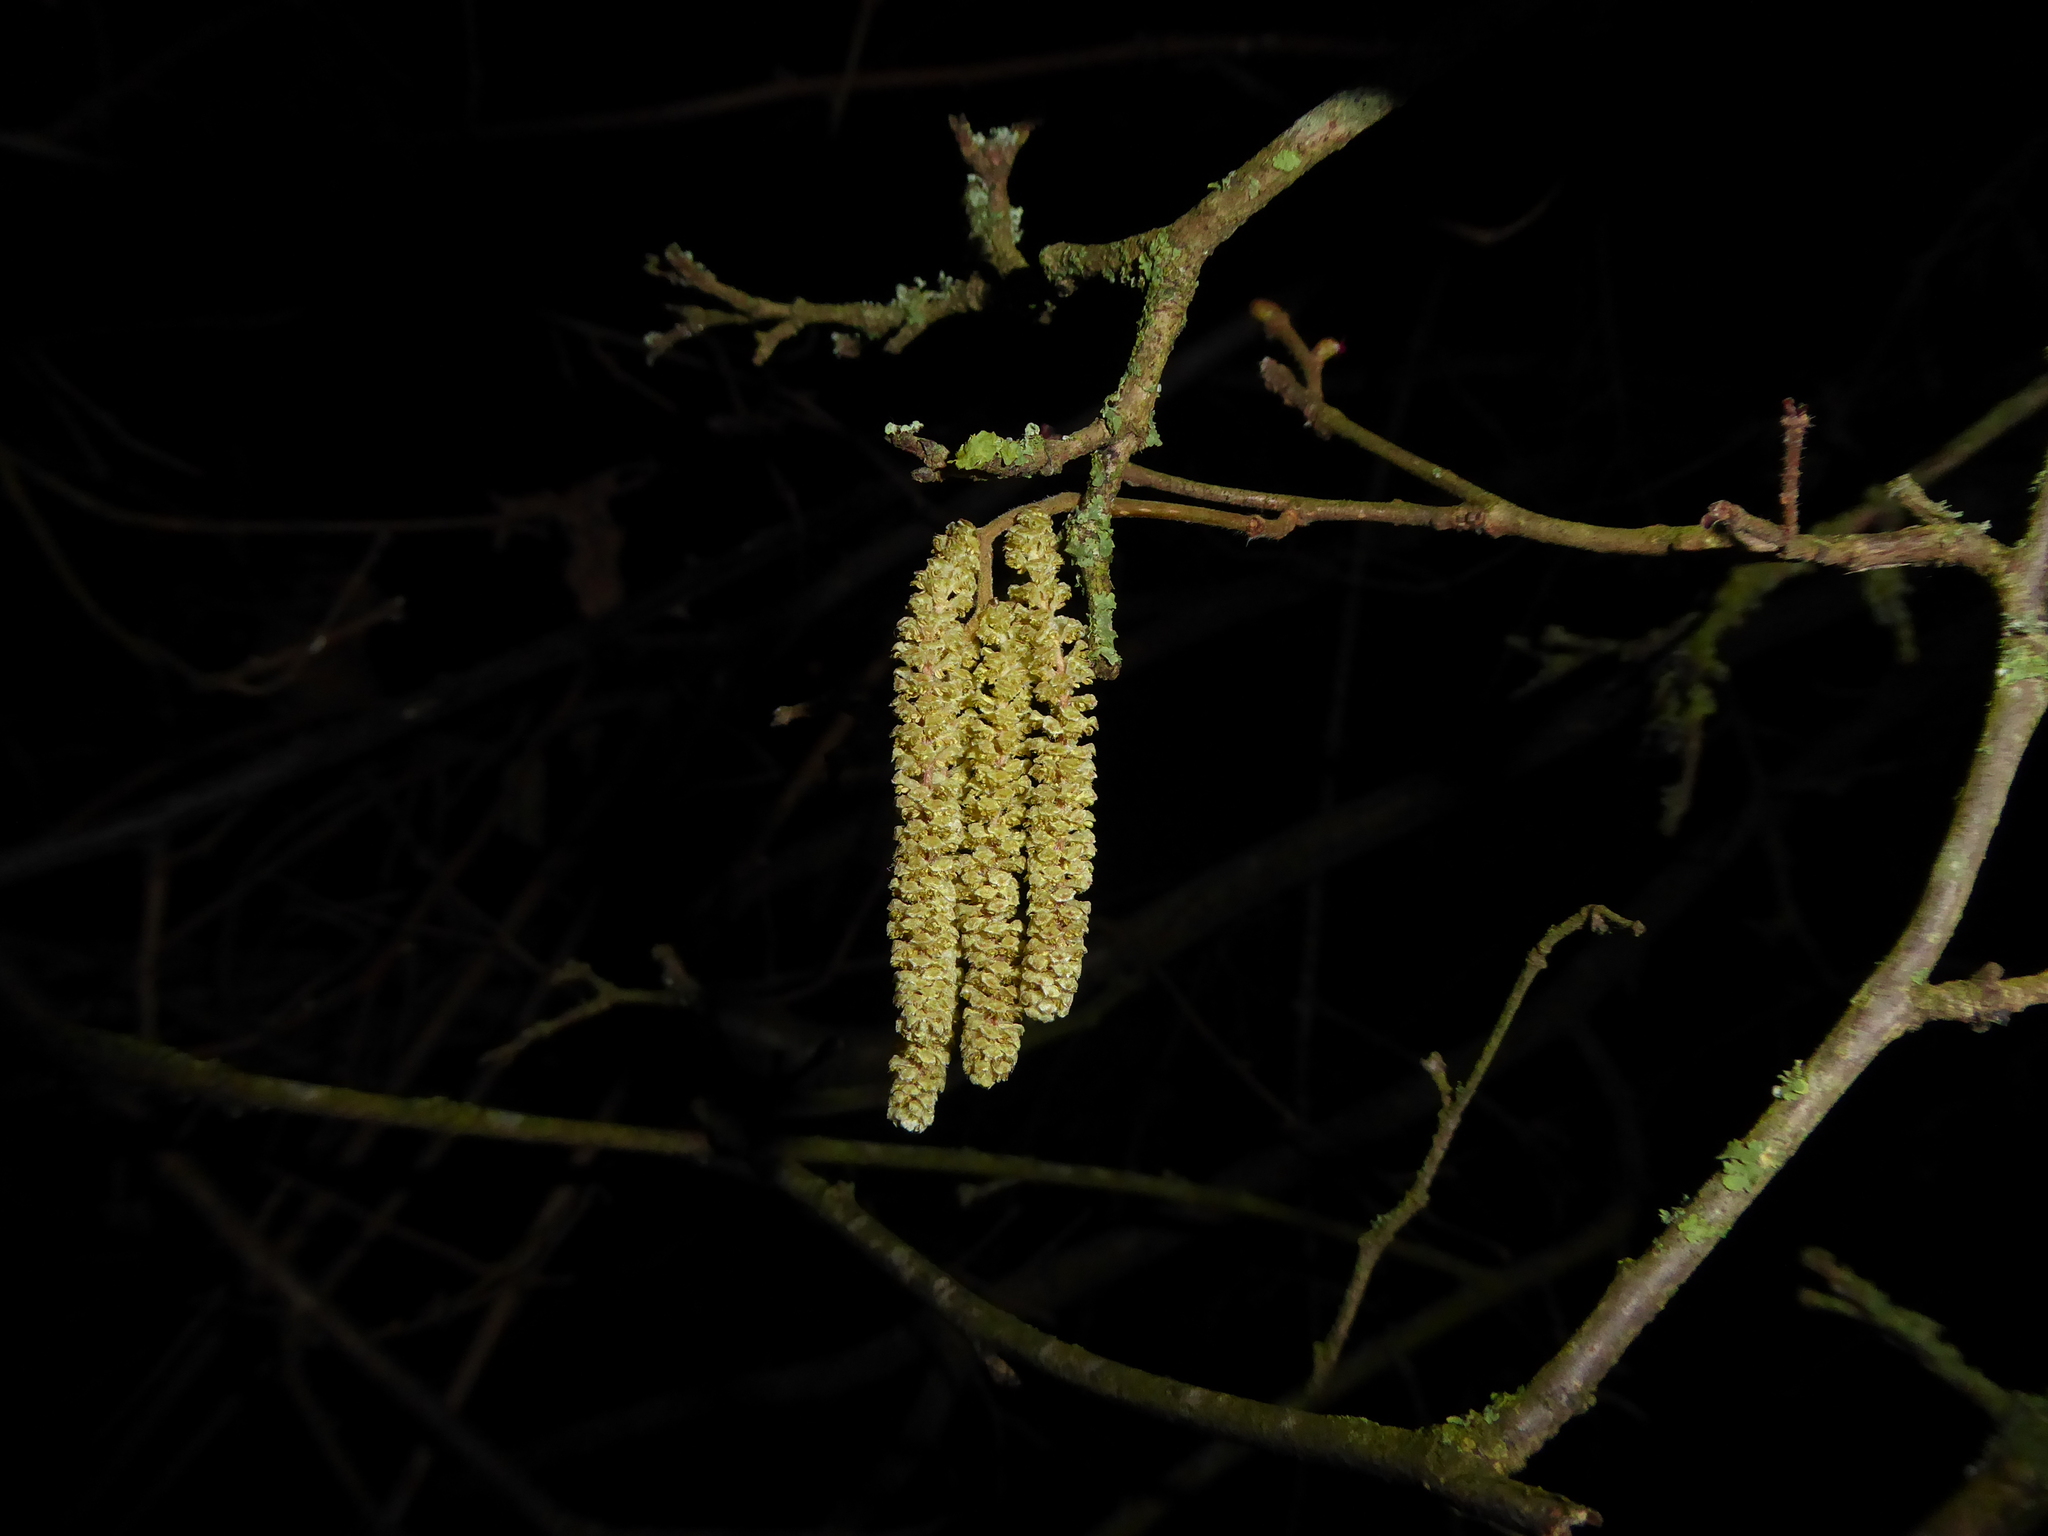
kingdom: Plantae
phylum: Tracheophyta
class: Magnoliopsida
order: Fagales
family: Betulaceae
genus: Corylus
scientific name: Corylus avellana
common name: European hazel
